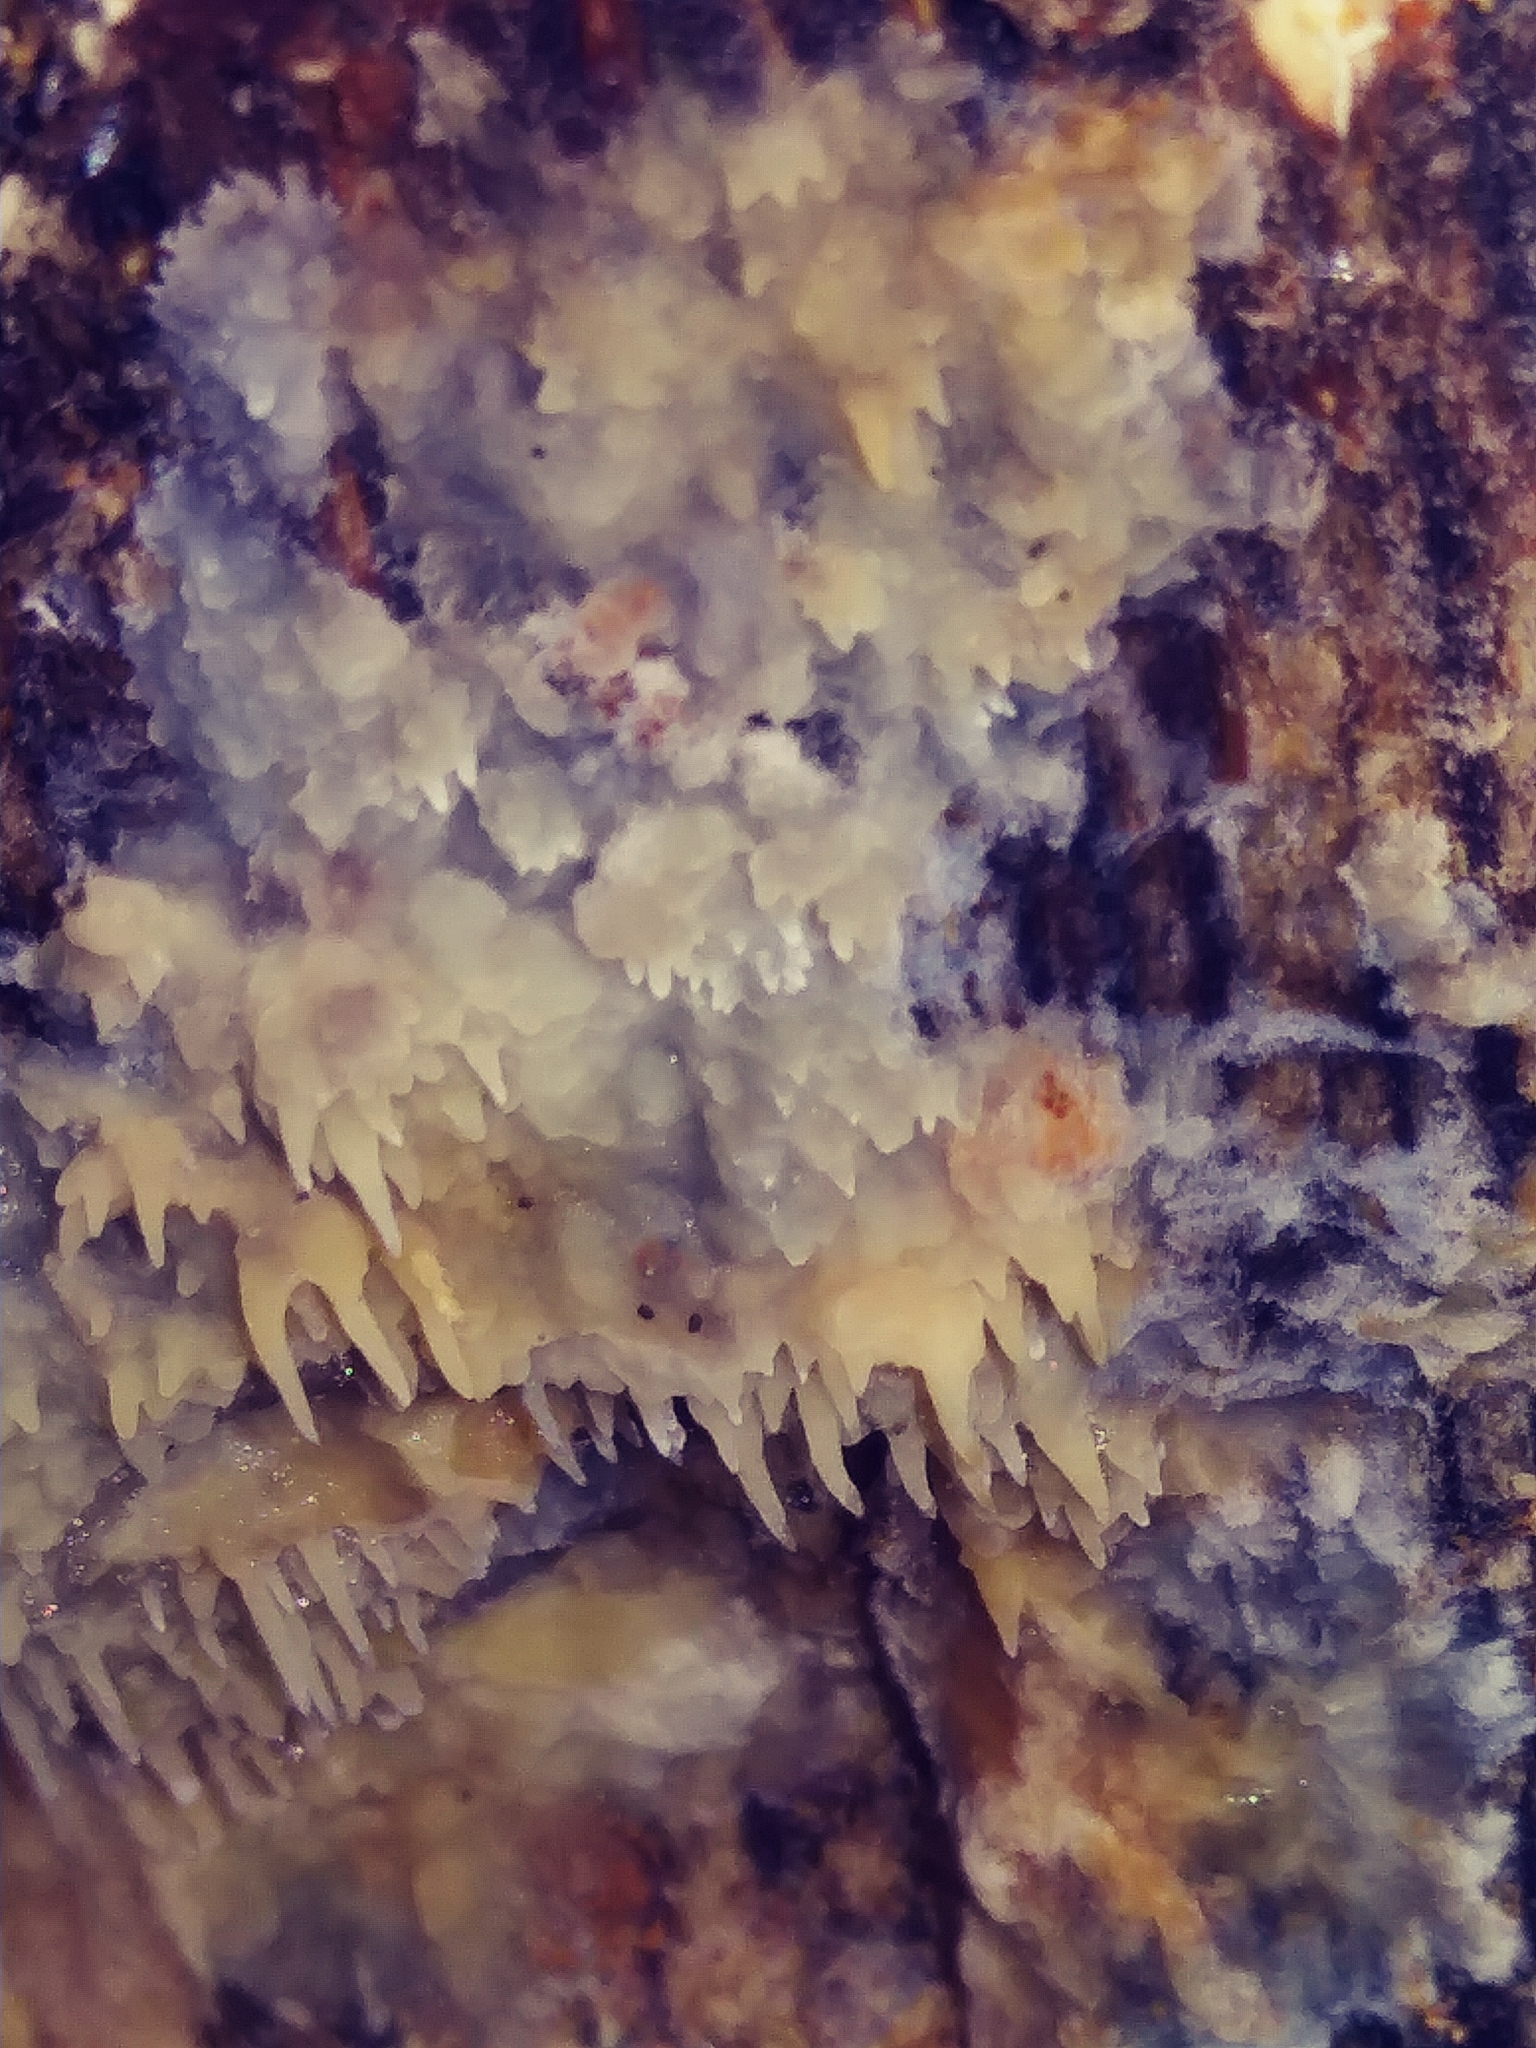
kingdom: Fungi
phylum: Basidiomycota
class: Agaricomycetes
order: Agaricales
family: Radulomycetaceae
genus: Radulomyces
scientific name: Radulomyces copelandii
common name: Asian beauty
